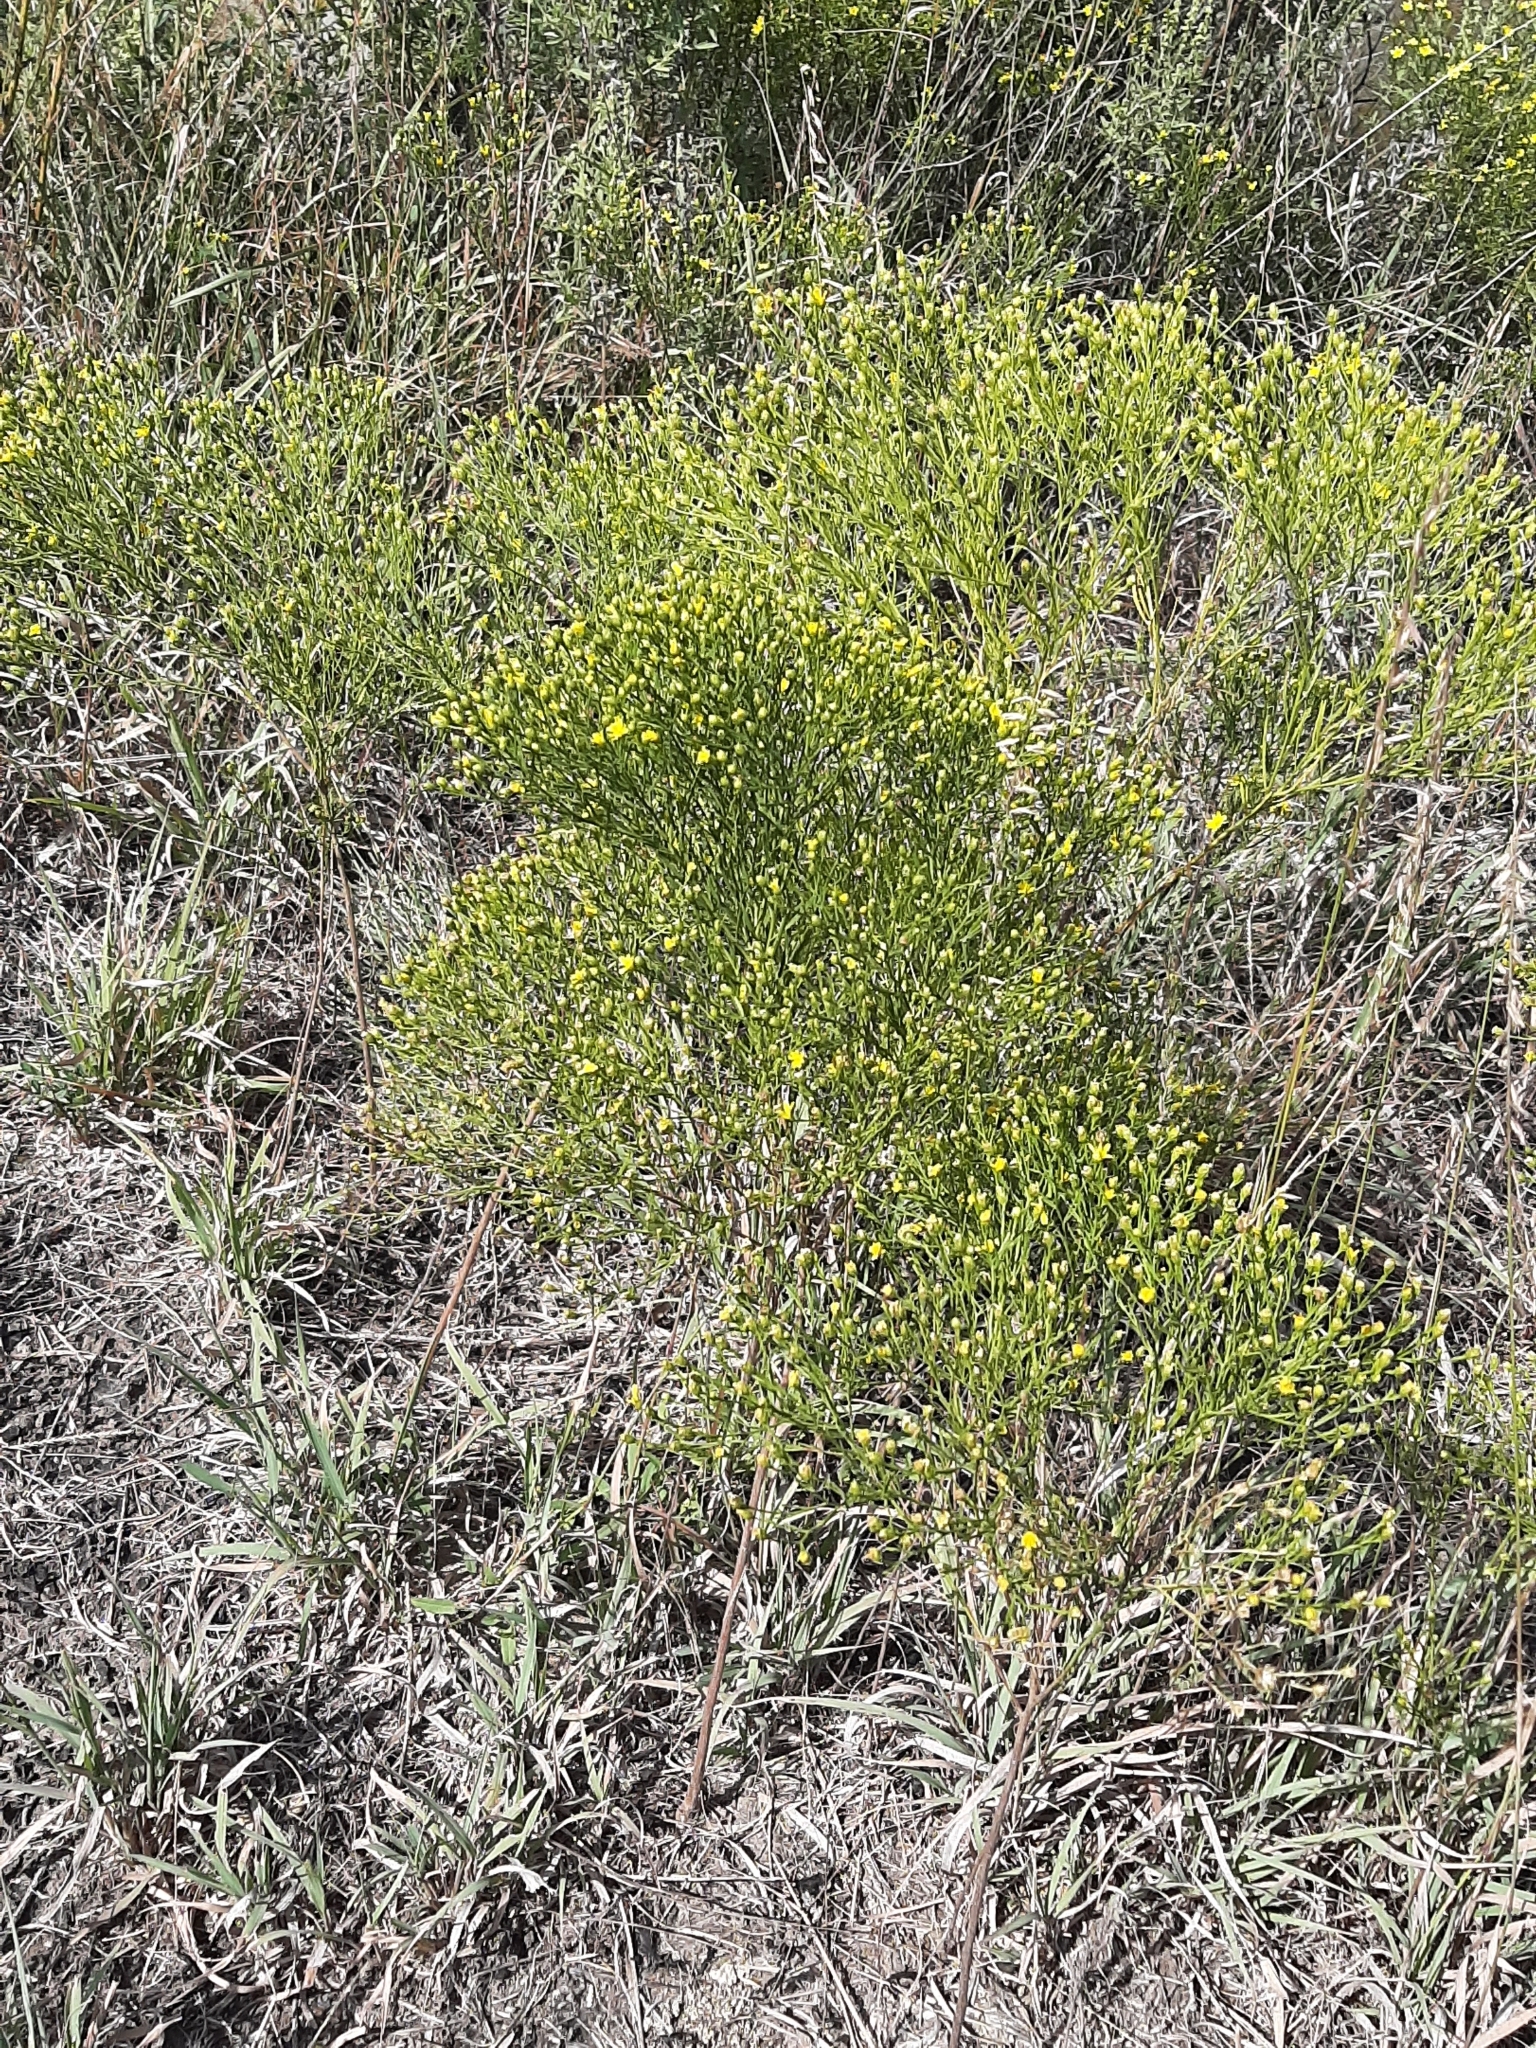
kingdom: Plantae
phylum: Tracheophyta
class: Magnoliopsida
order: Asterales
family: Asteraceae
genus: Amphiachyris
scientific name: Amphiachyris dracunculoides
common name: Broomweed
